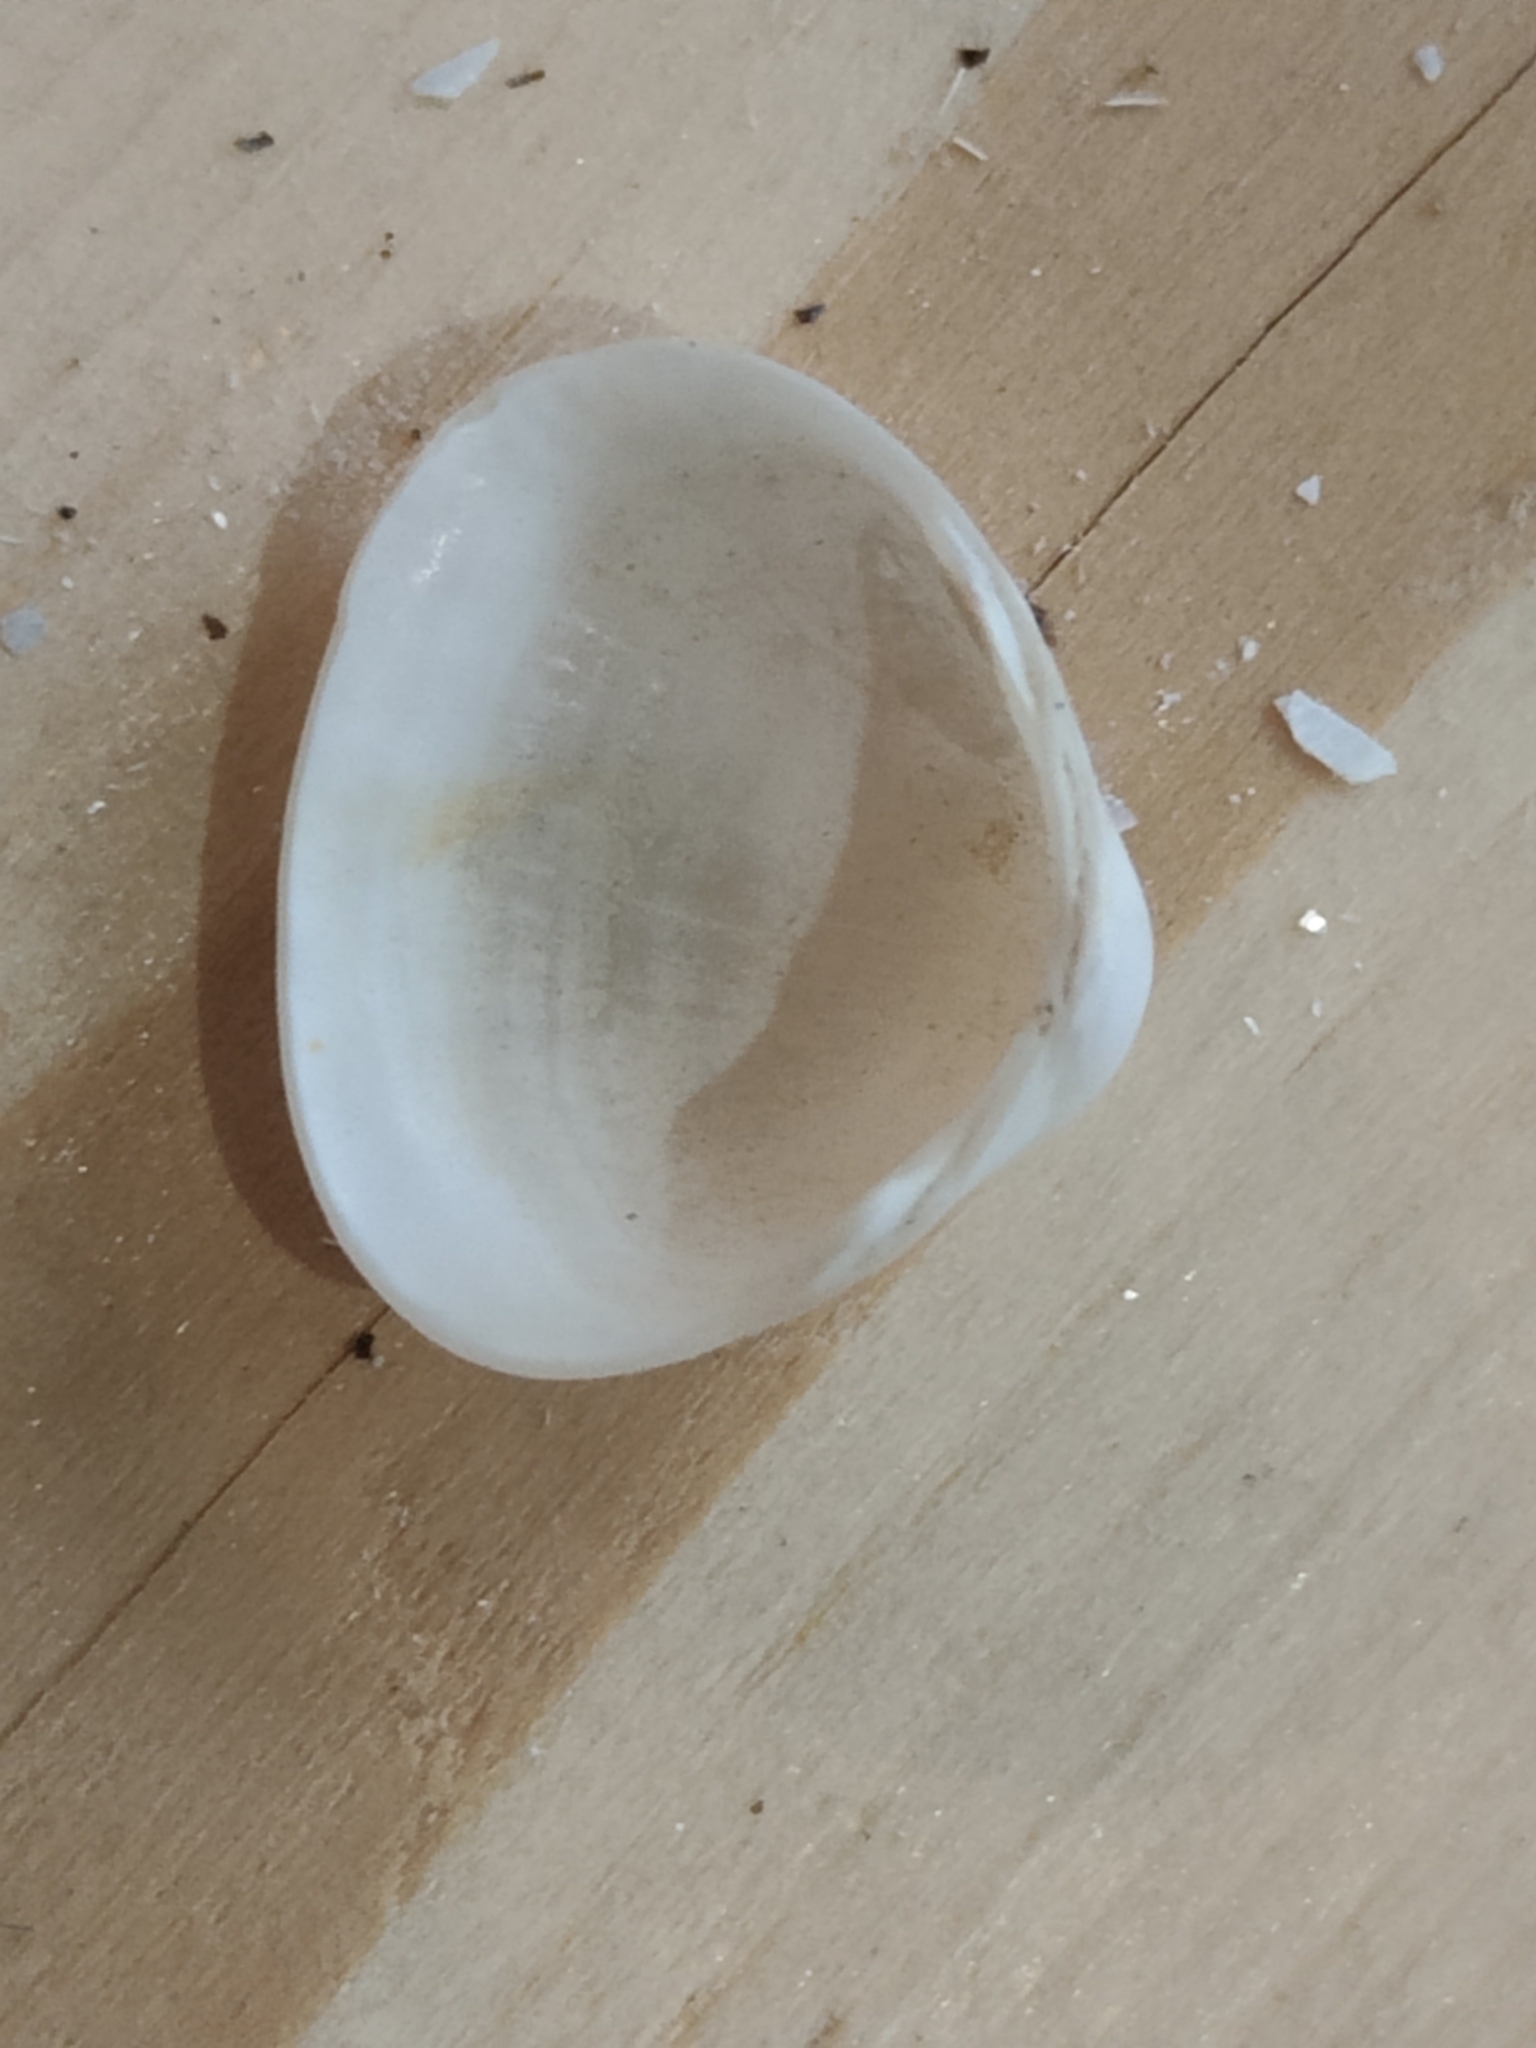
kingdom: Animalia
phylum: Mollusca
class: Bivalvia
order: Sphaeriida
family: Sphaeriidae
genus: Sphaerium
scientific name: Sphaerium striatinum
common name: Striated fingernailclam
